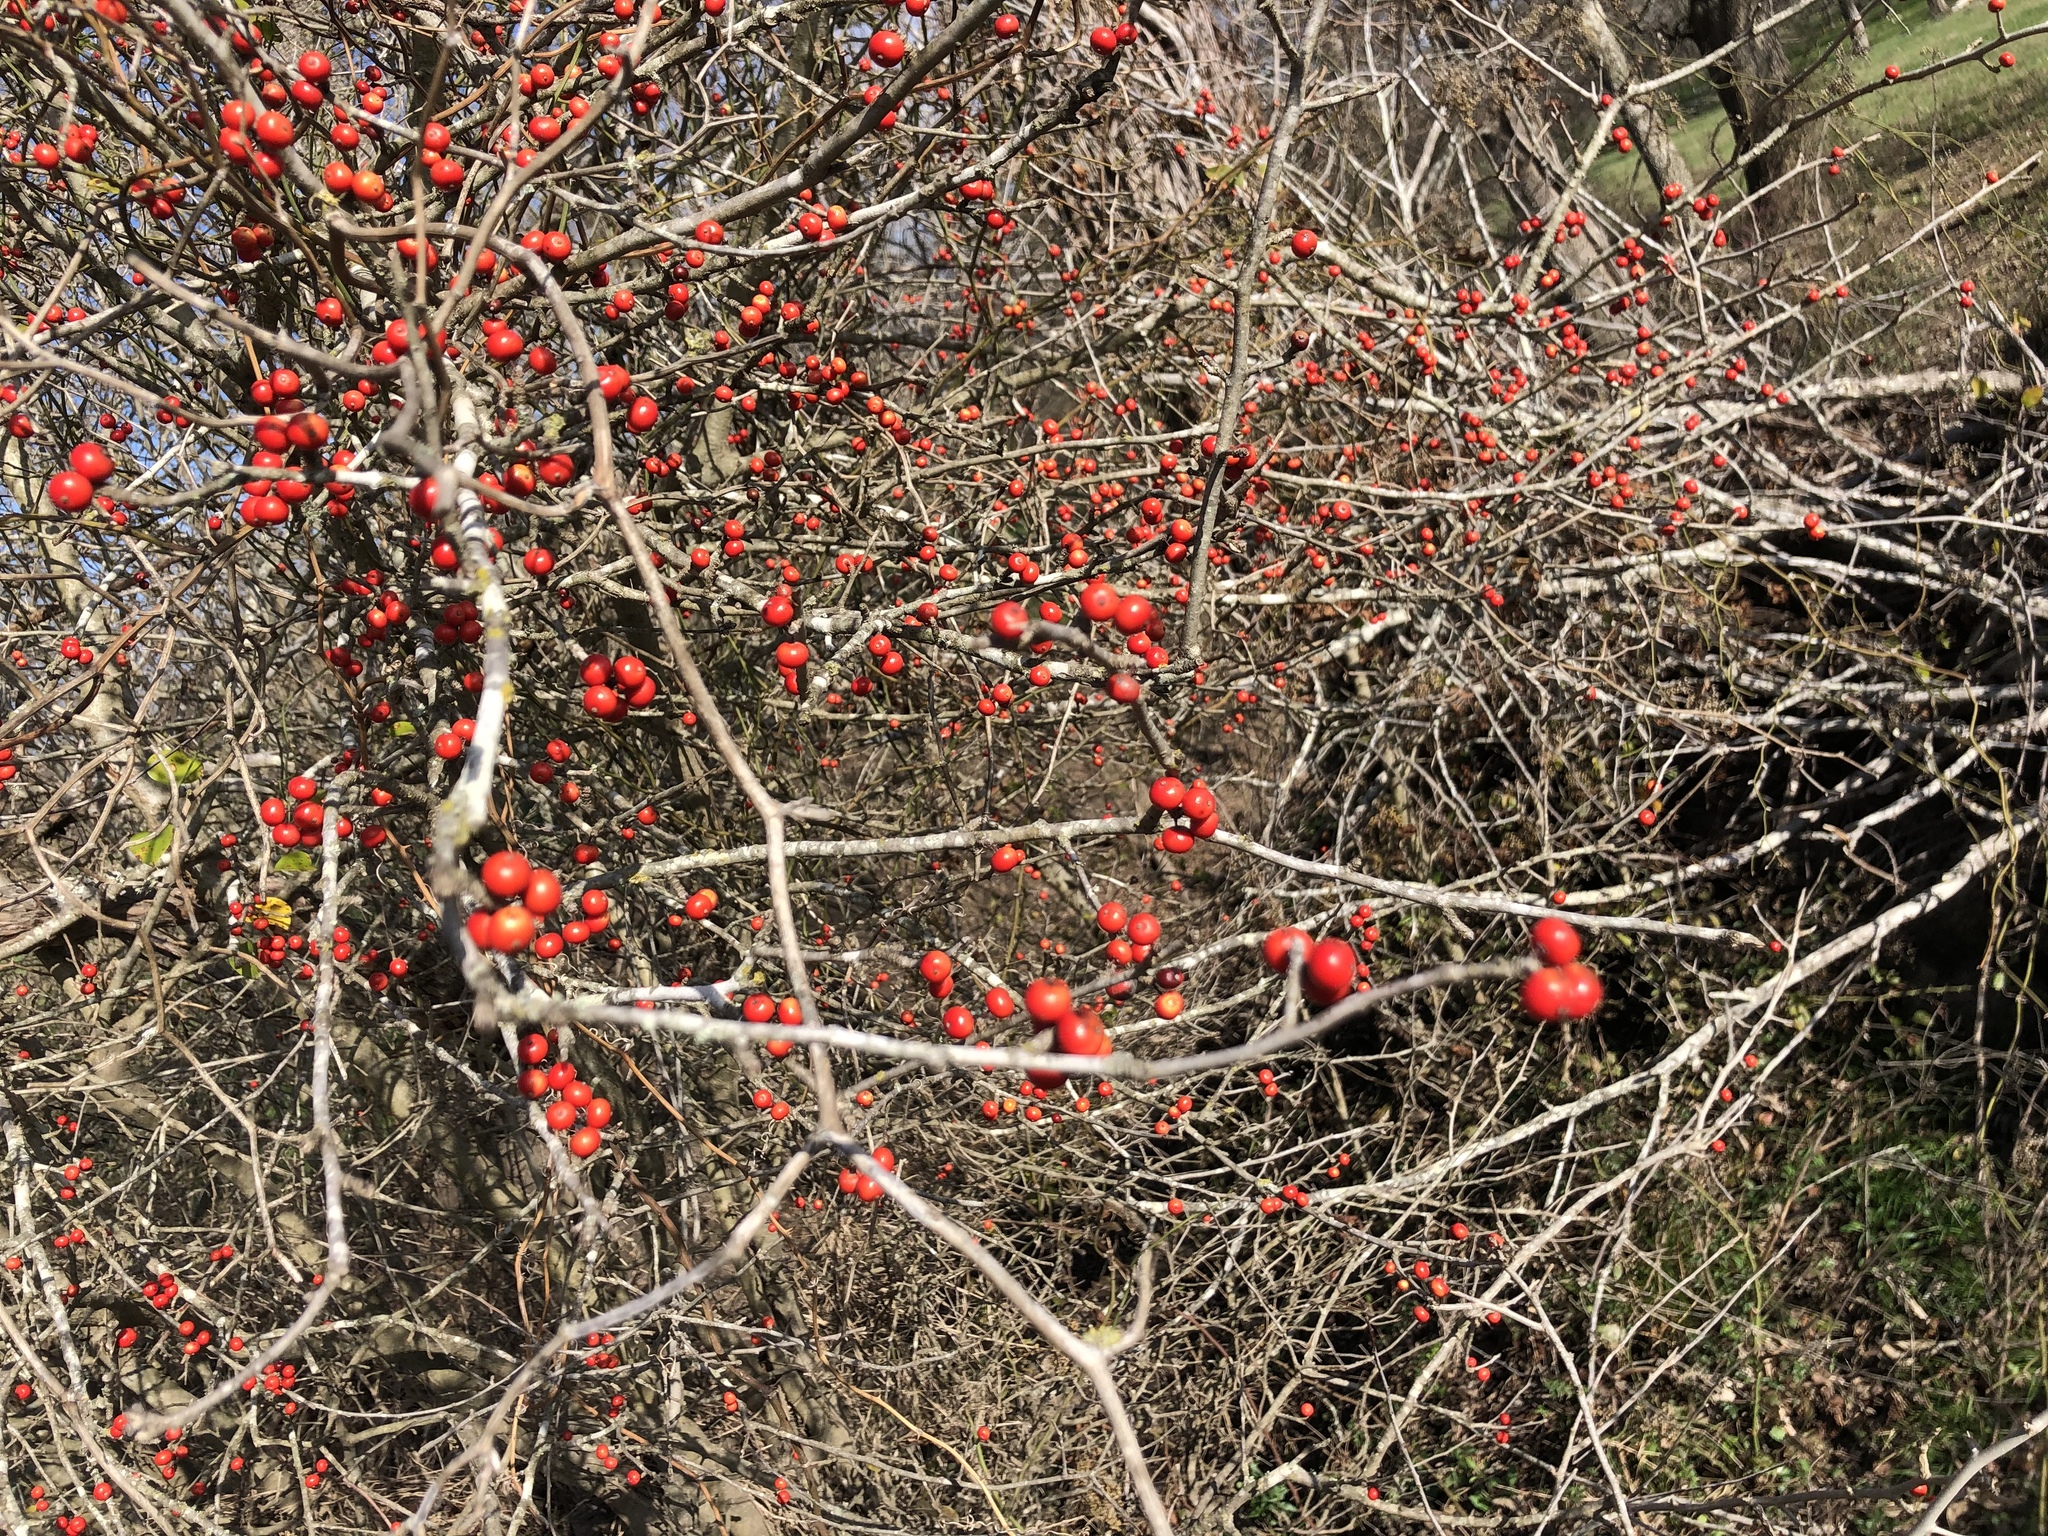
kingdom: Plantae
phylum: Tracheophyta
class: Magnoliopsida
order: Aquifoliales
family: Aquifoliaceae
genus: Ilex
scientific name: Ilex decidua
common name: Possum-haw
